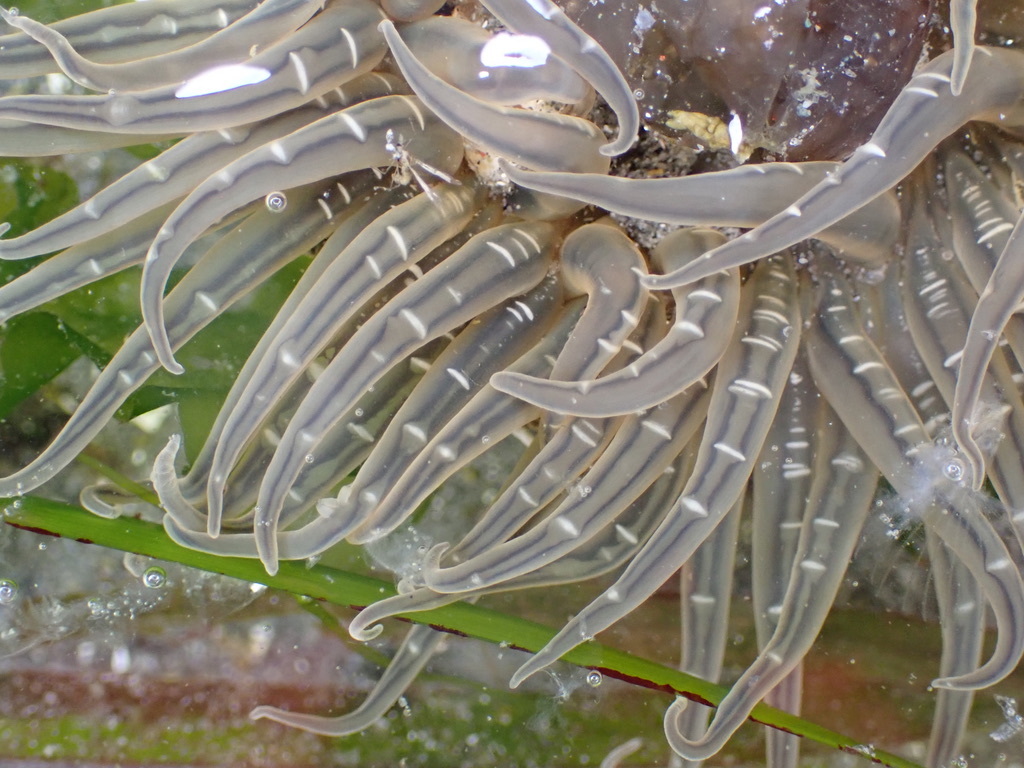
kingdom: Animalia
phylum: Cnidaria
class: Anthozoa
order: Actiniaria
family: Actiniidae
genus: Anthopleura
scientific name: Anthopleura artemisia
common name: Buried sea anemone
